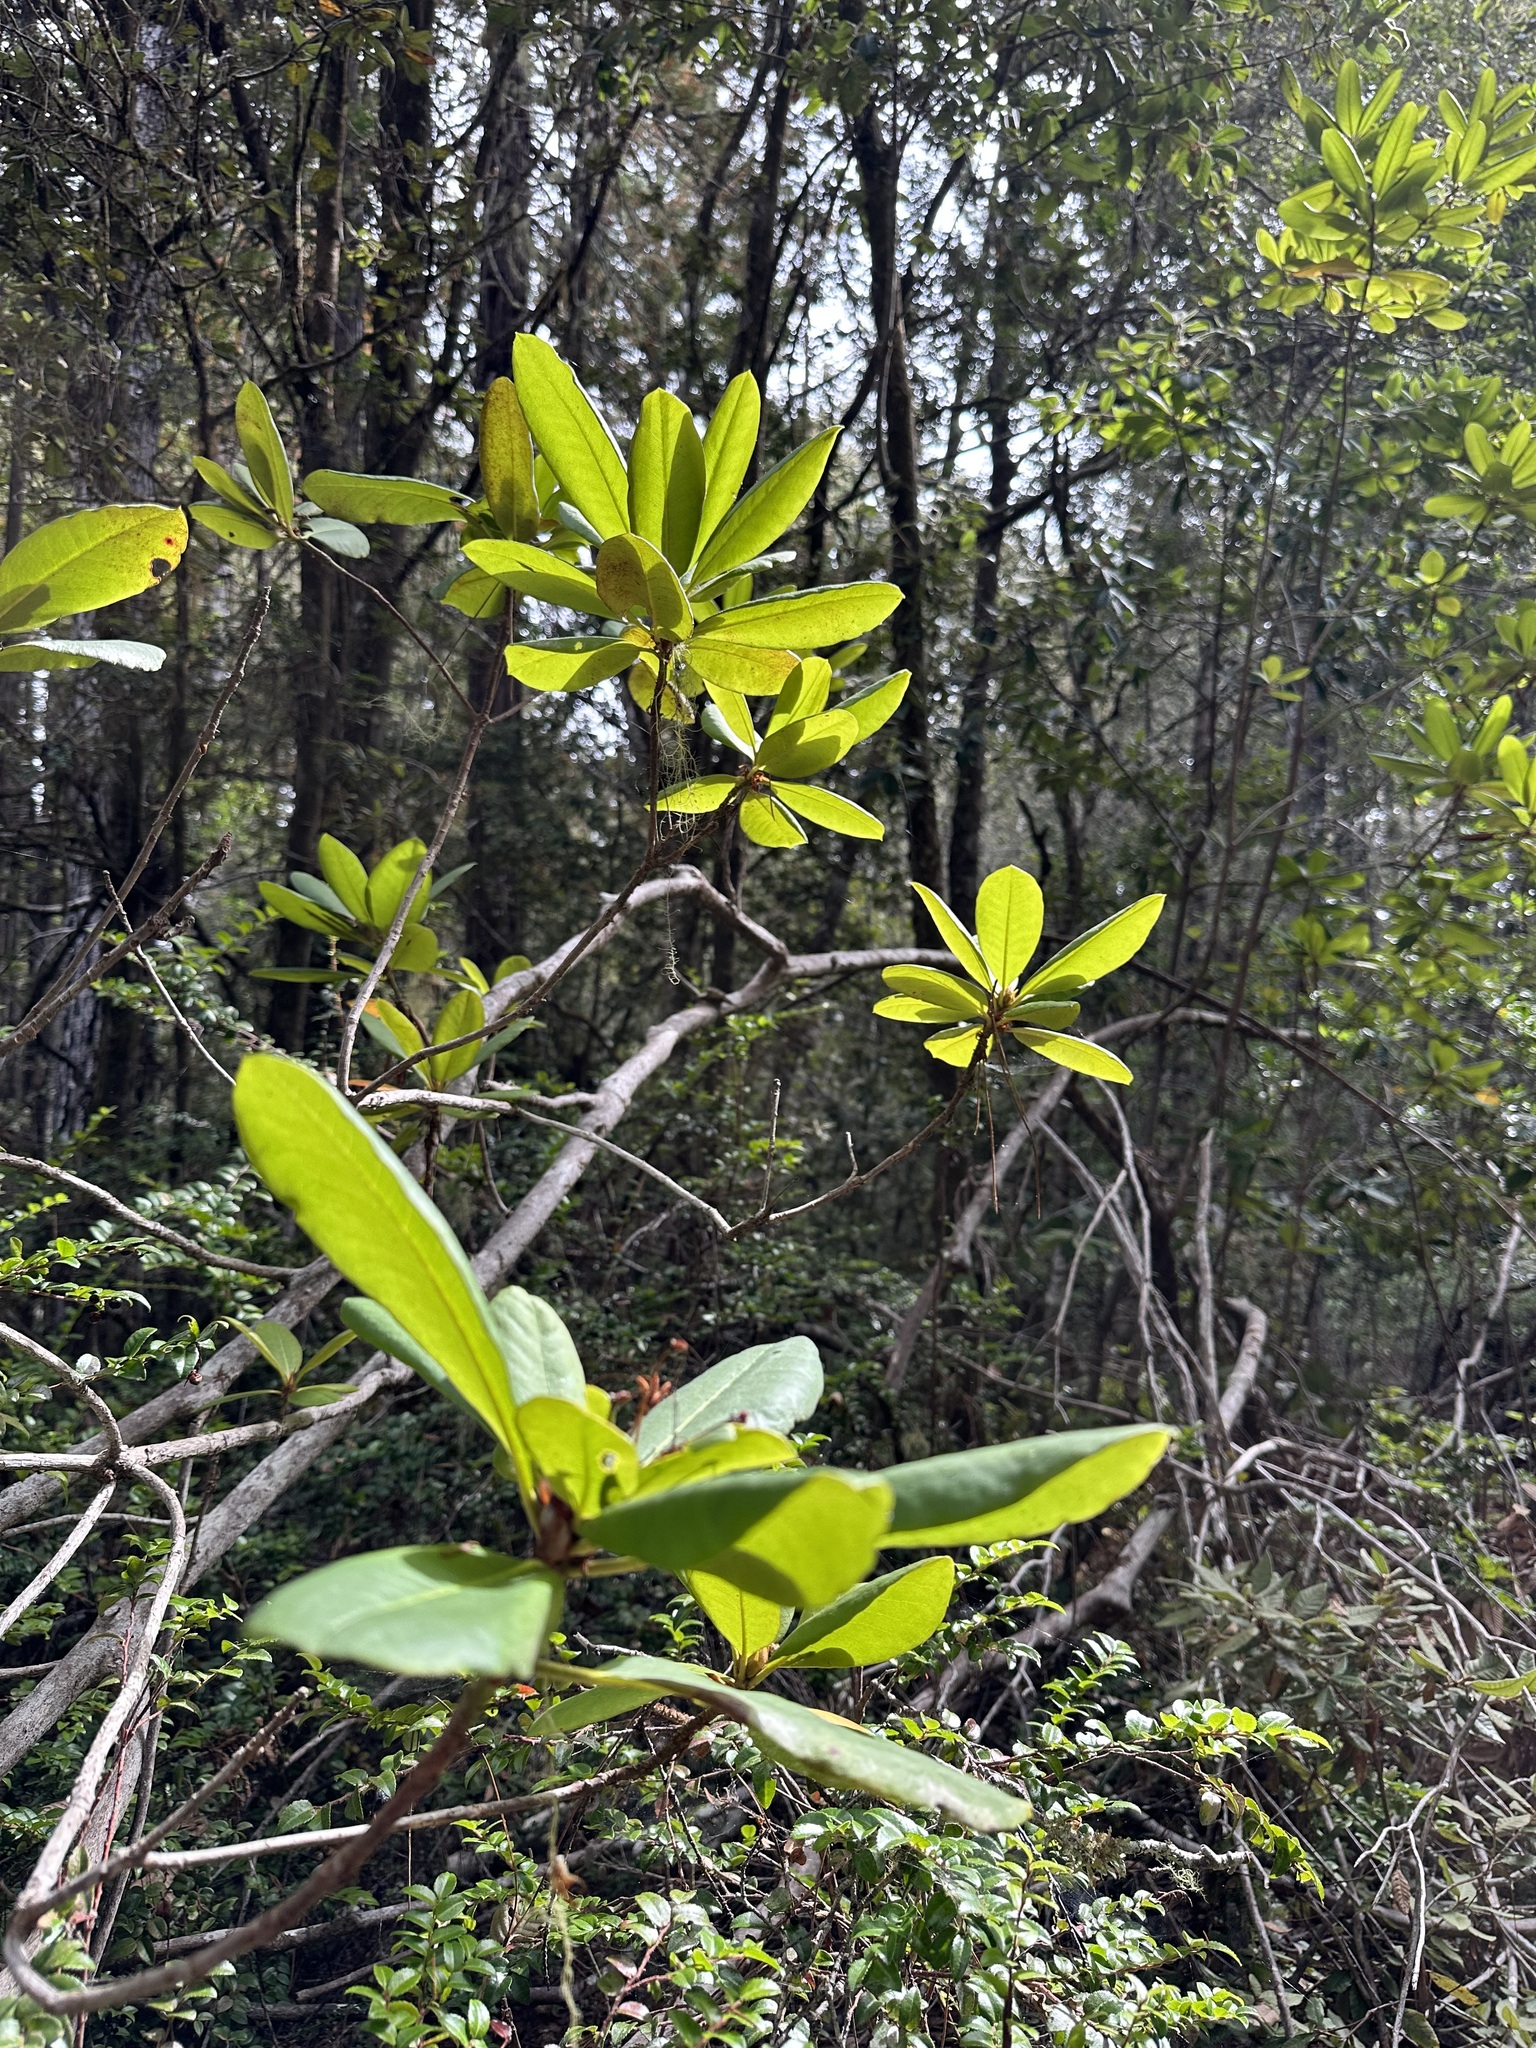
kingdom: Plantae
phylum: Tracheophyta
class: Magnoliopsida
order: Ericales
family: Ericaceae
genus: Rhododendron
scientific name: Rhododendron macrophyllum
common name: California rose bay
